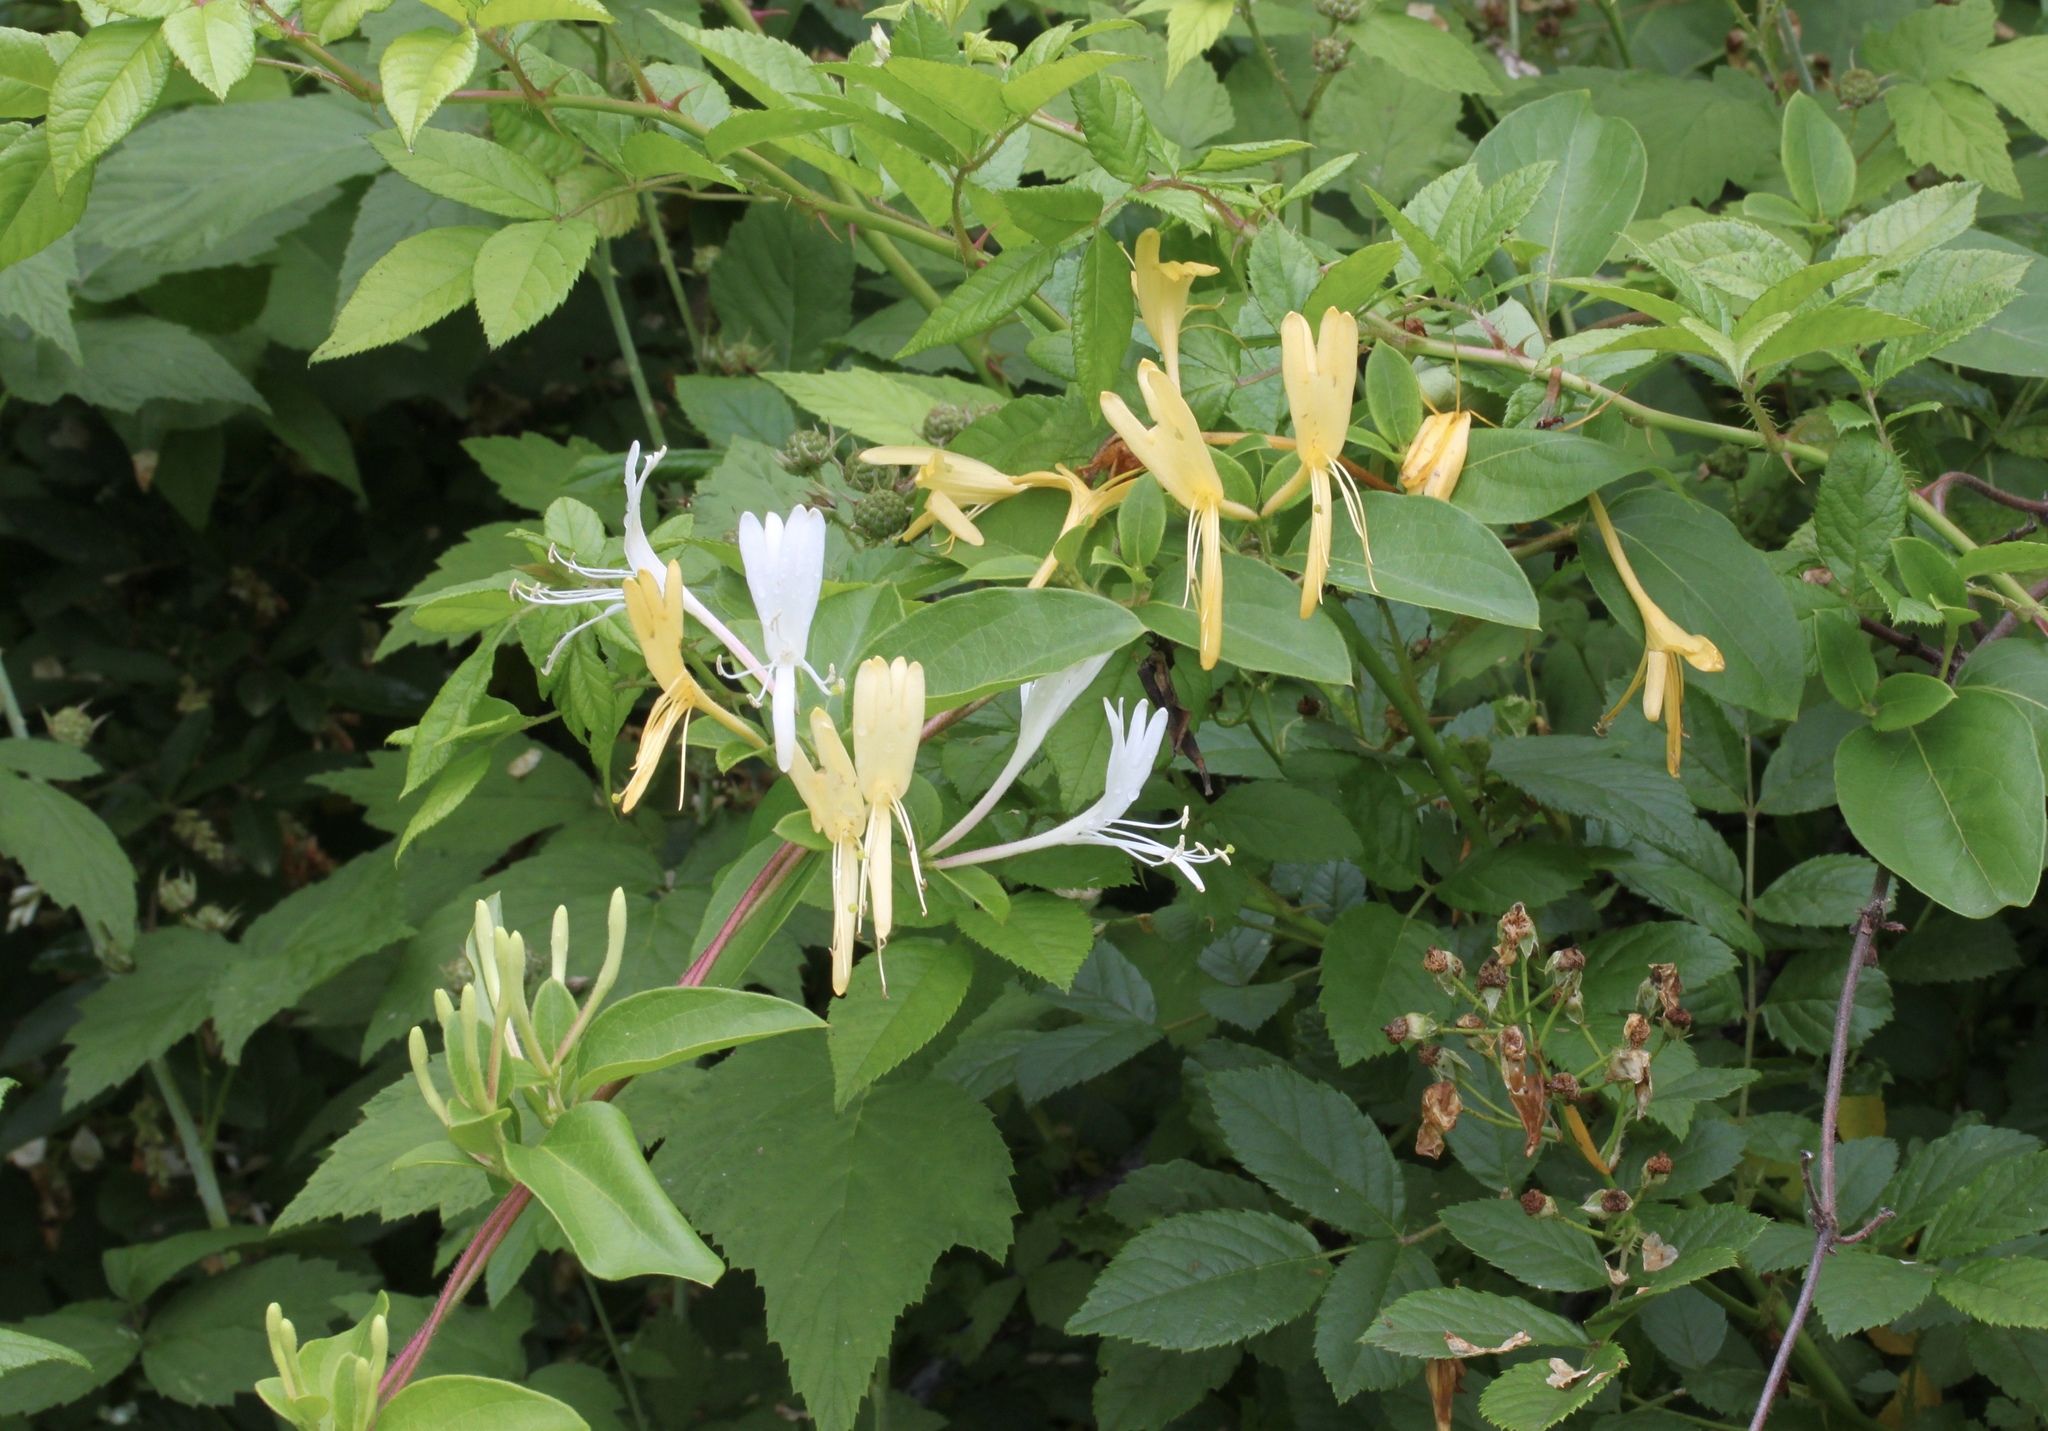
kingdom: Plantae
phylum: Tracheophyta
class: Magnoliopsida
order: Dipsacales
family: Caprifoliaceae
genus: Lonicera
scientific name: Lonicera japonica
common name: Japanese honeysuckle
